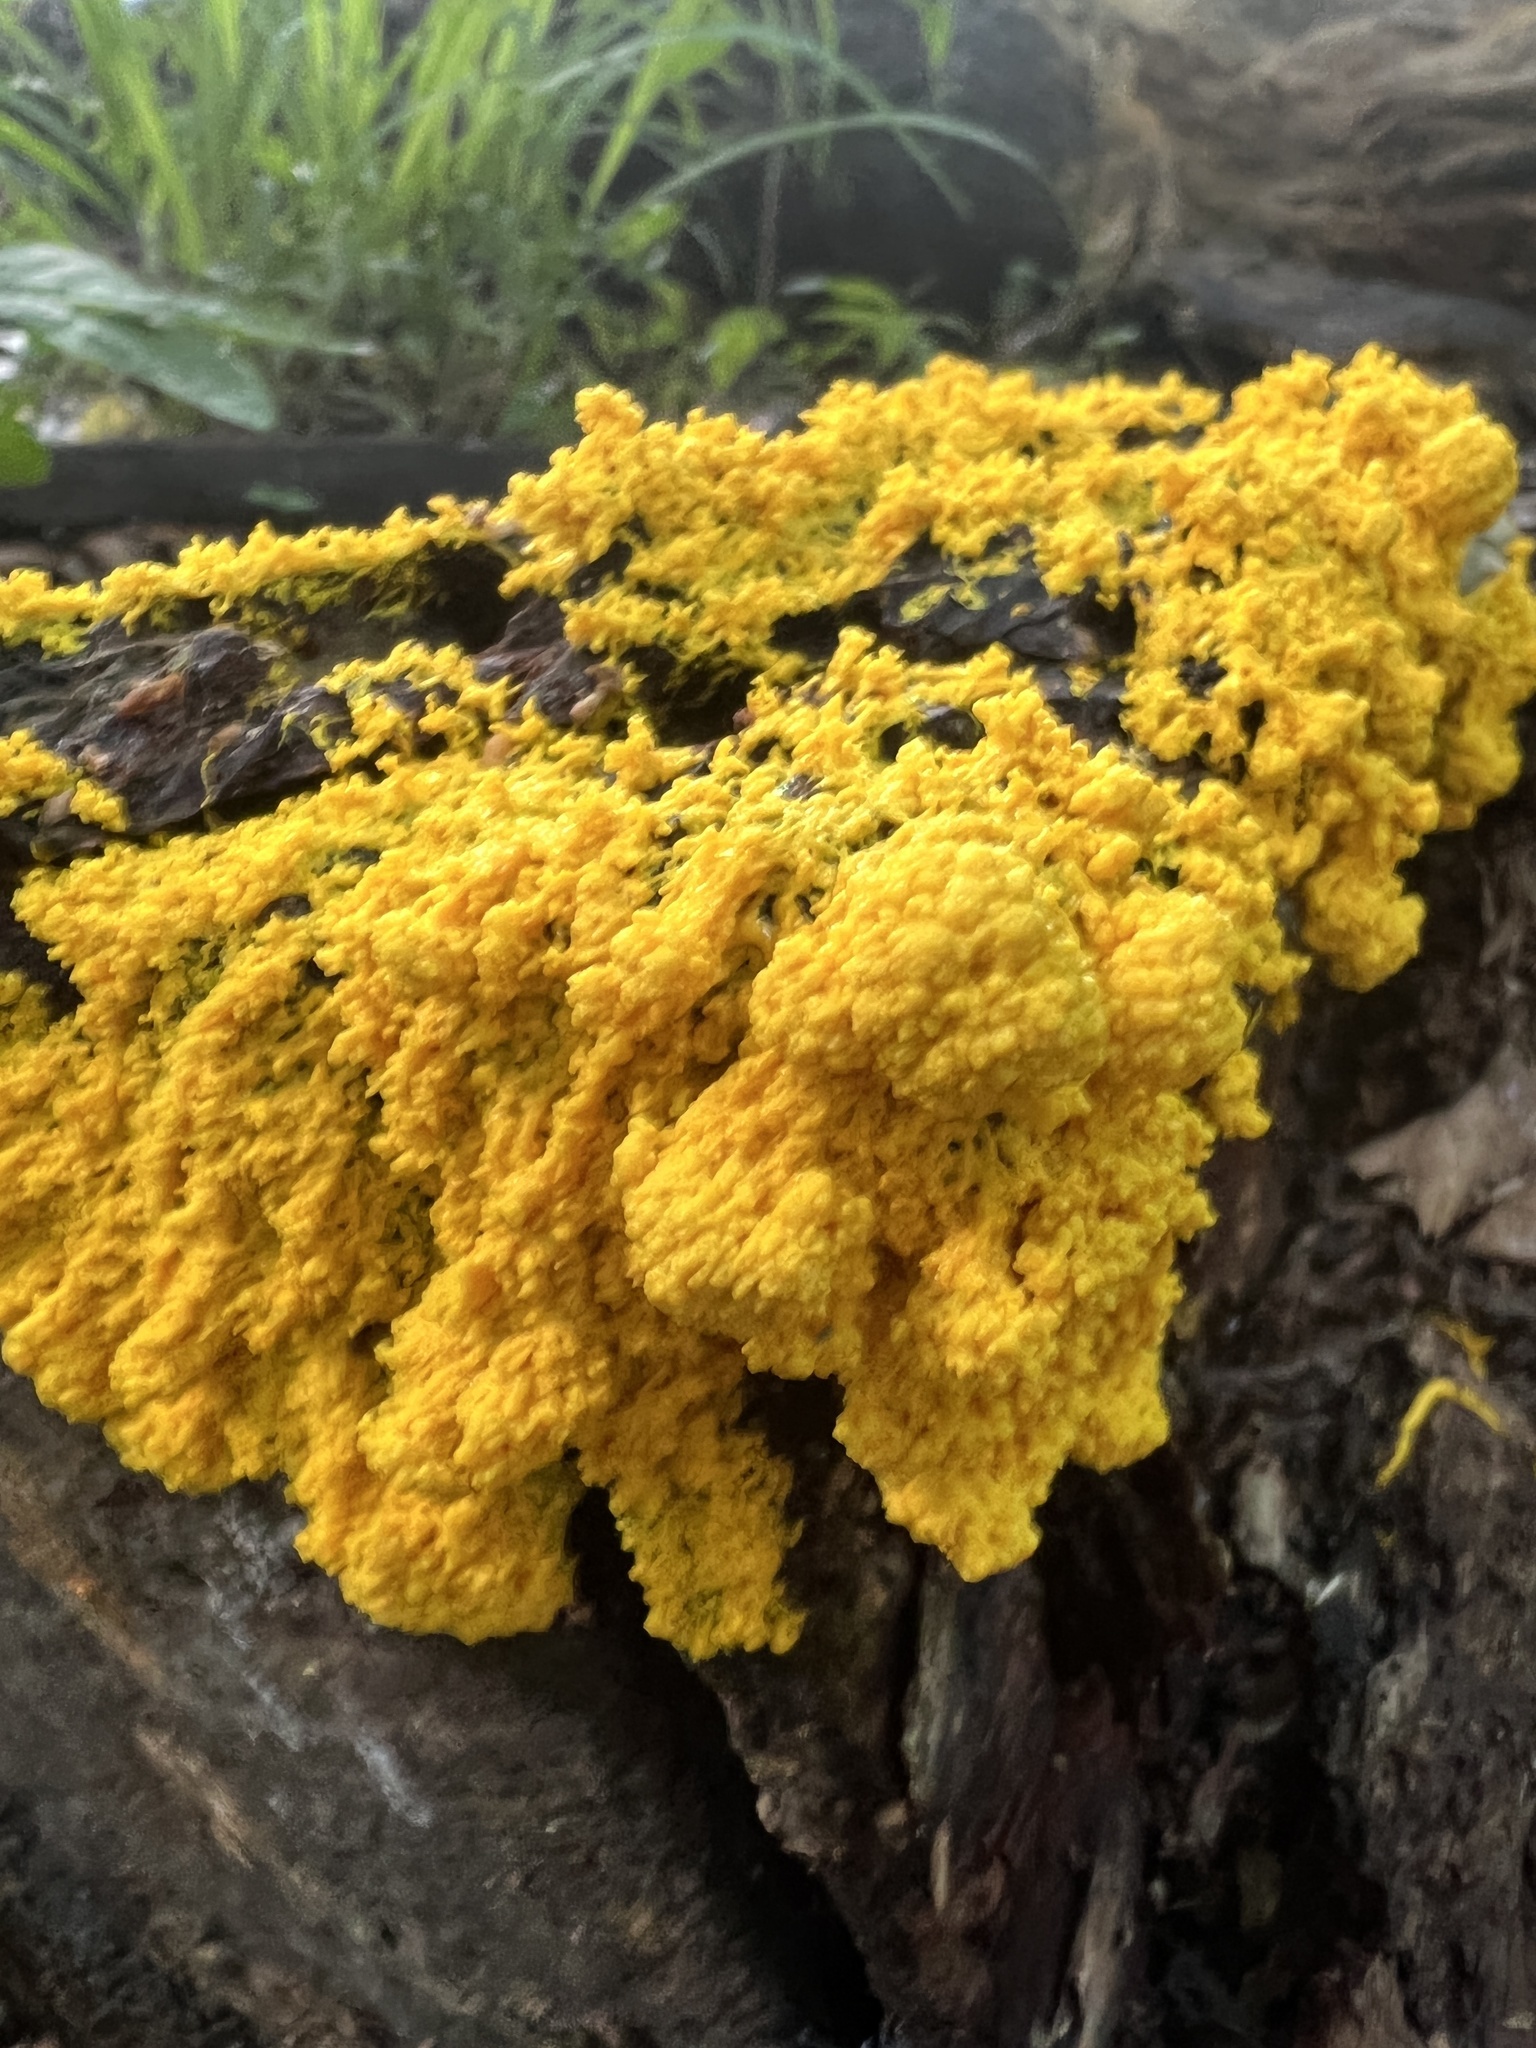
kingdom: Protozoa
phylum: Mycetozoa
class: Myxomycetes
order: Physarales
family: Physaraceae
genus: Fuligo
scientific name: Fuligo septica
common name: Dog vomit slime mold
